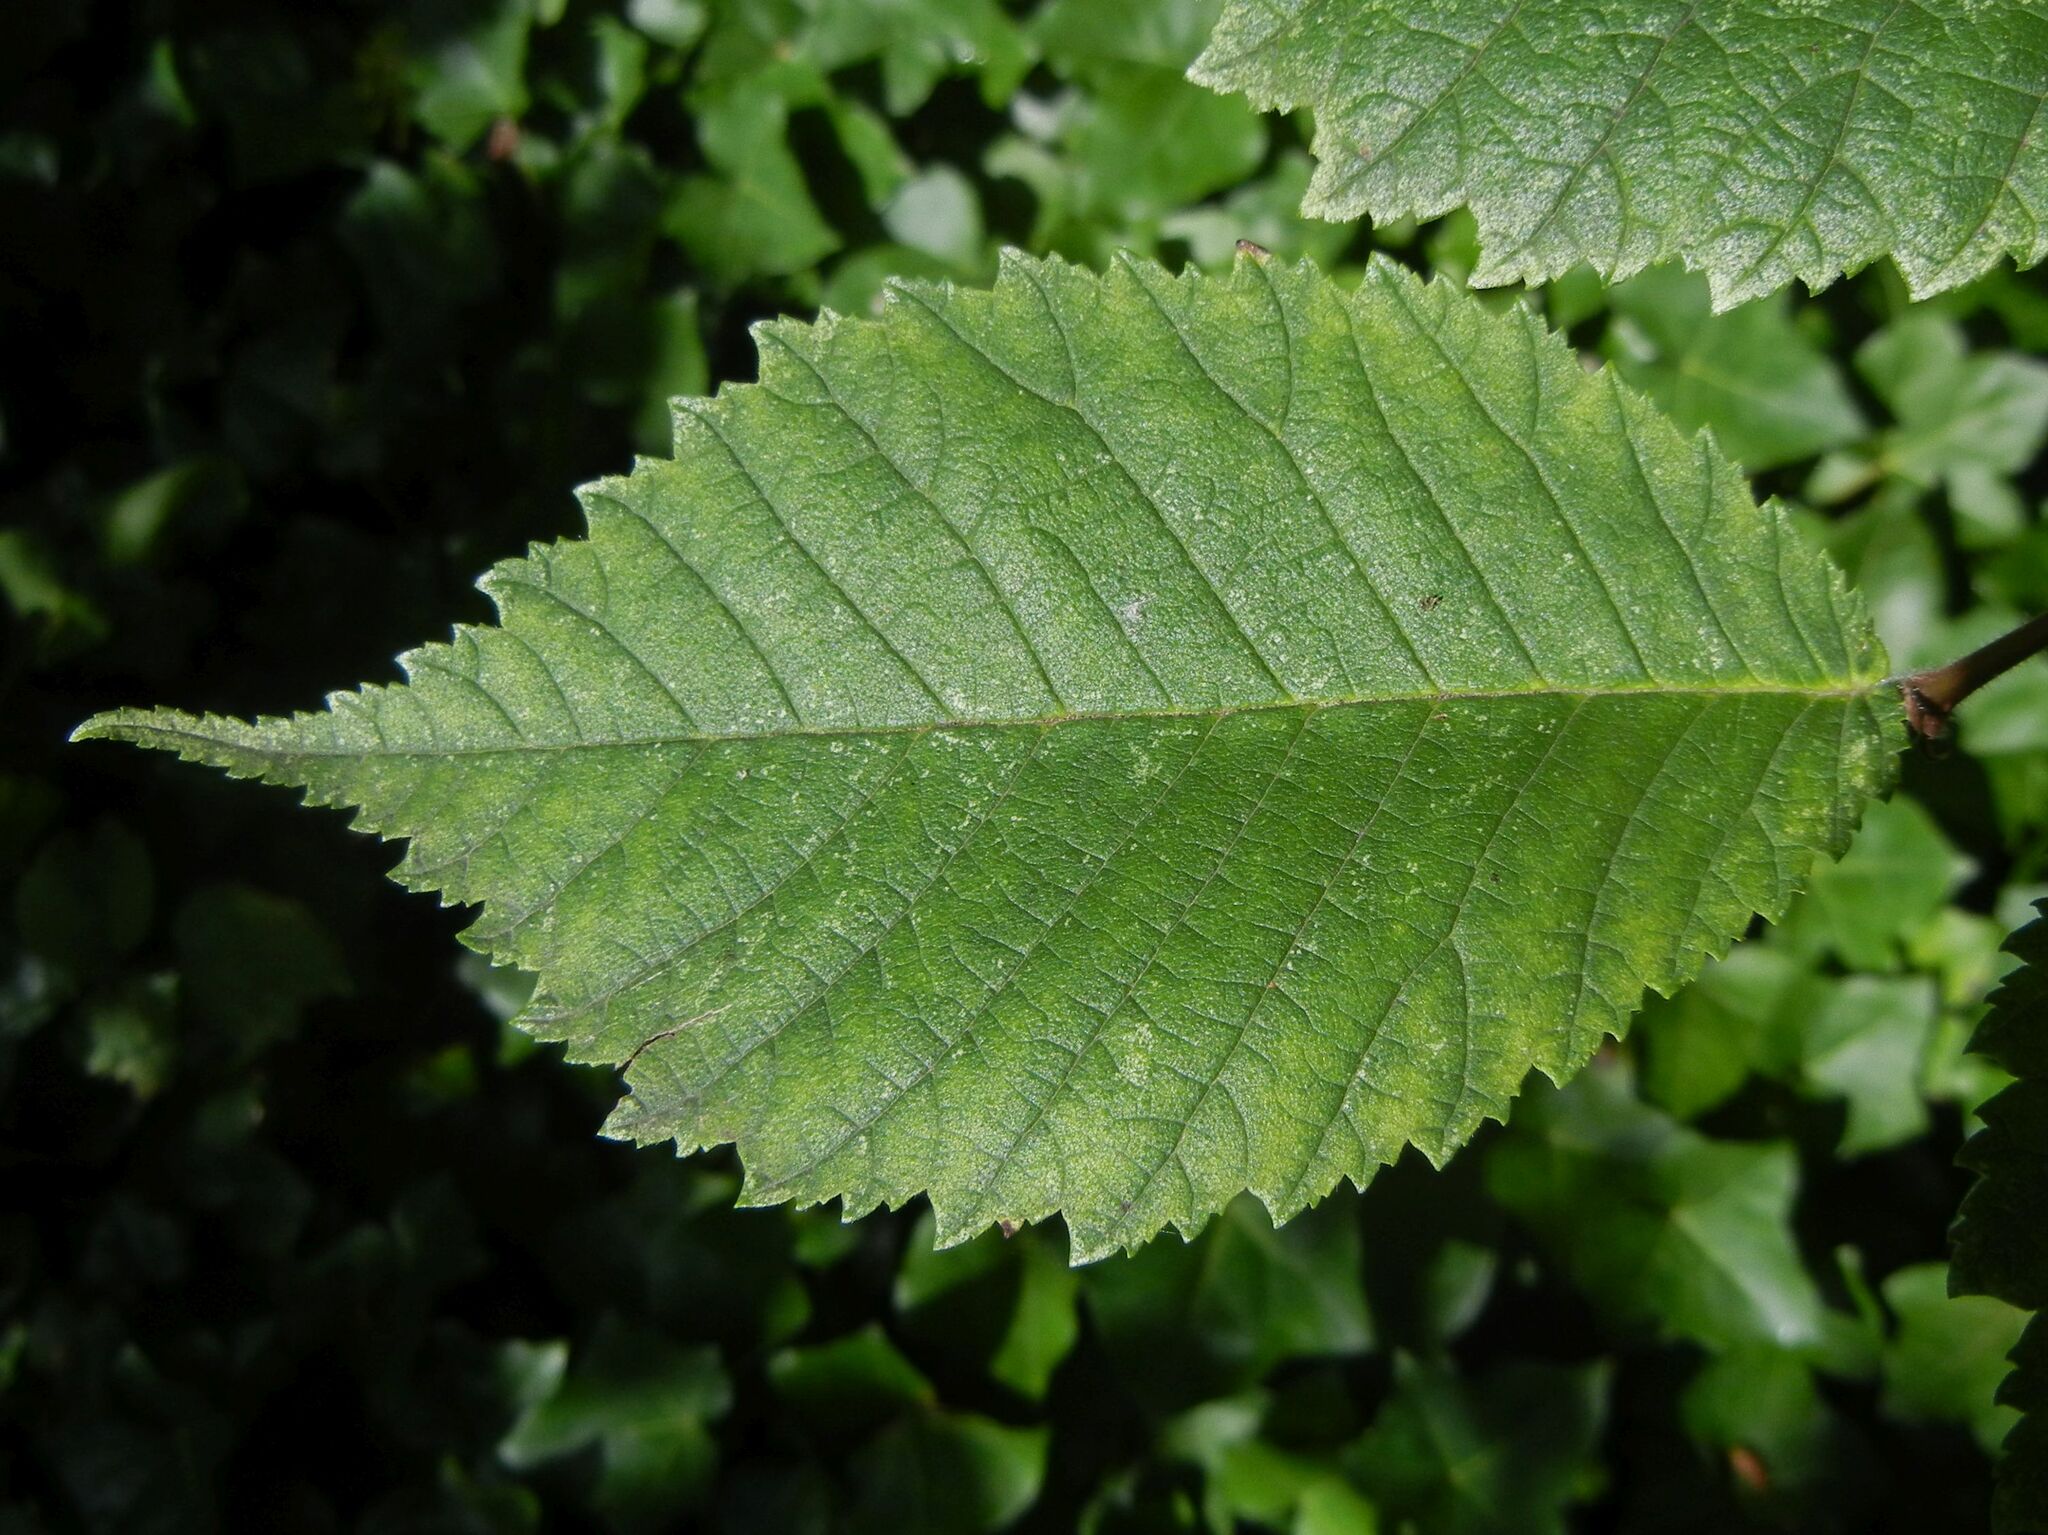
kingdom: Plantae
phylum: Tracheophyta
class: Magnoliopsida
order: Rosales
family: Ulmaceae
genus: Ulmus
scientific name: Ulmus glabra
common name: Wych elm
